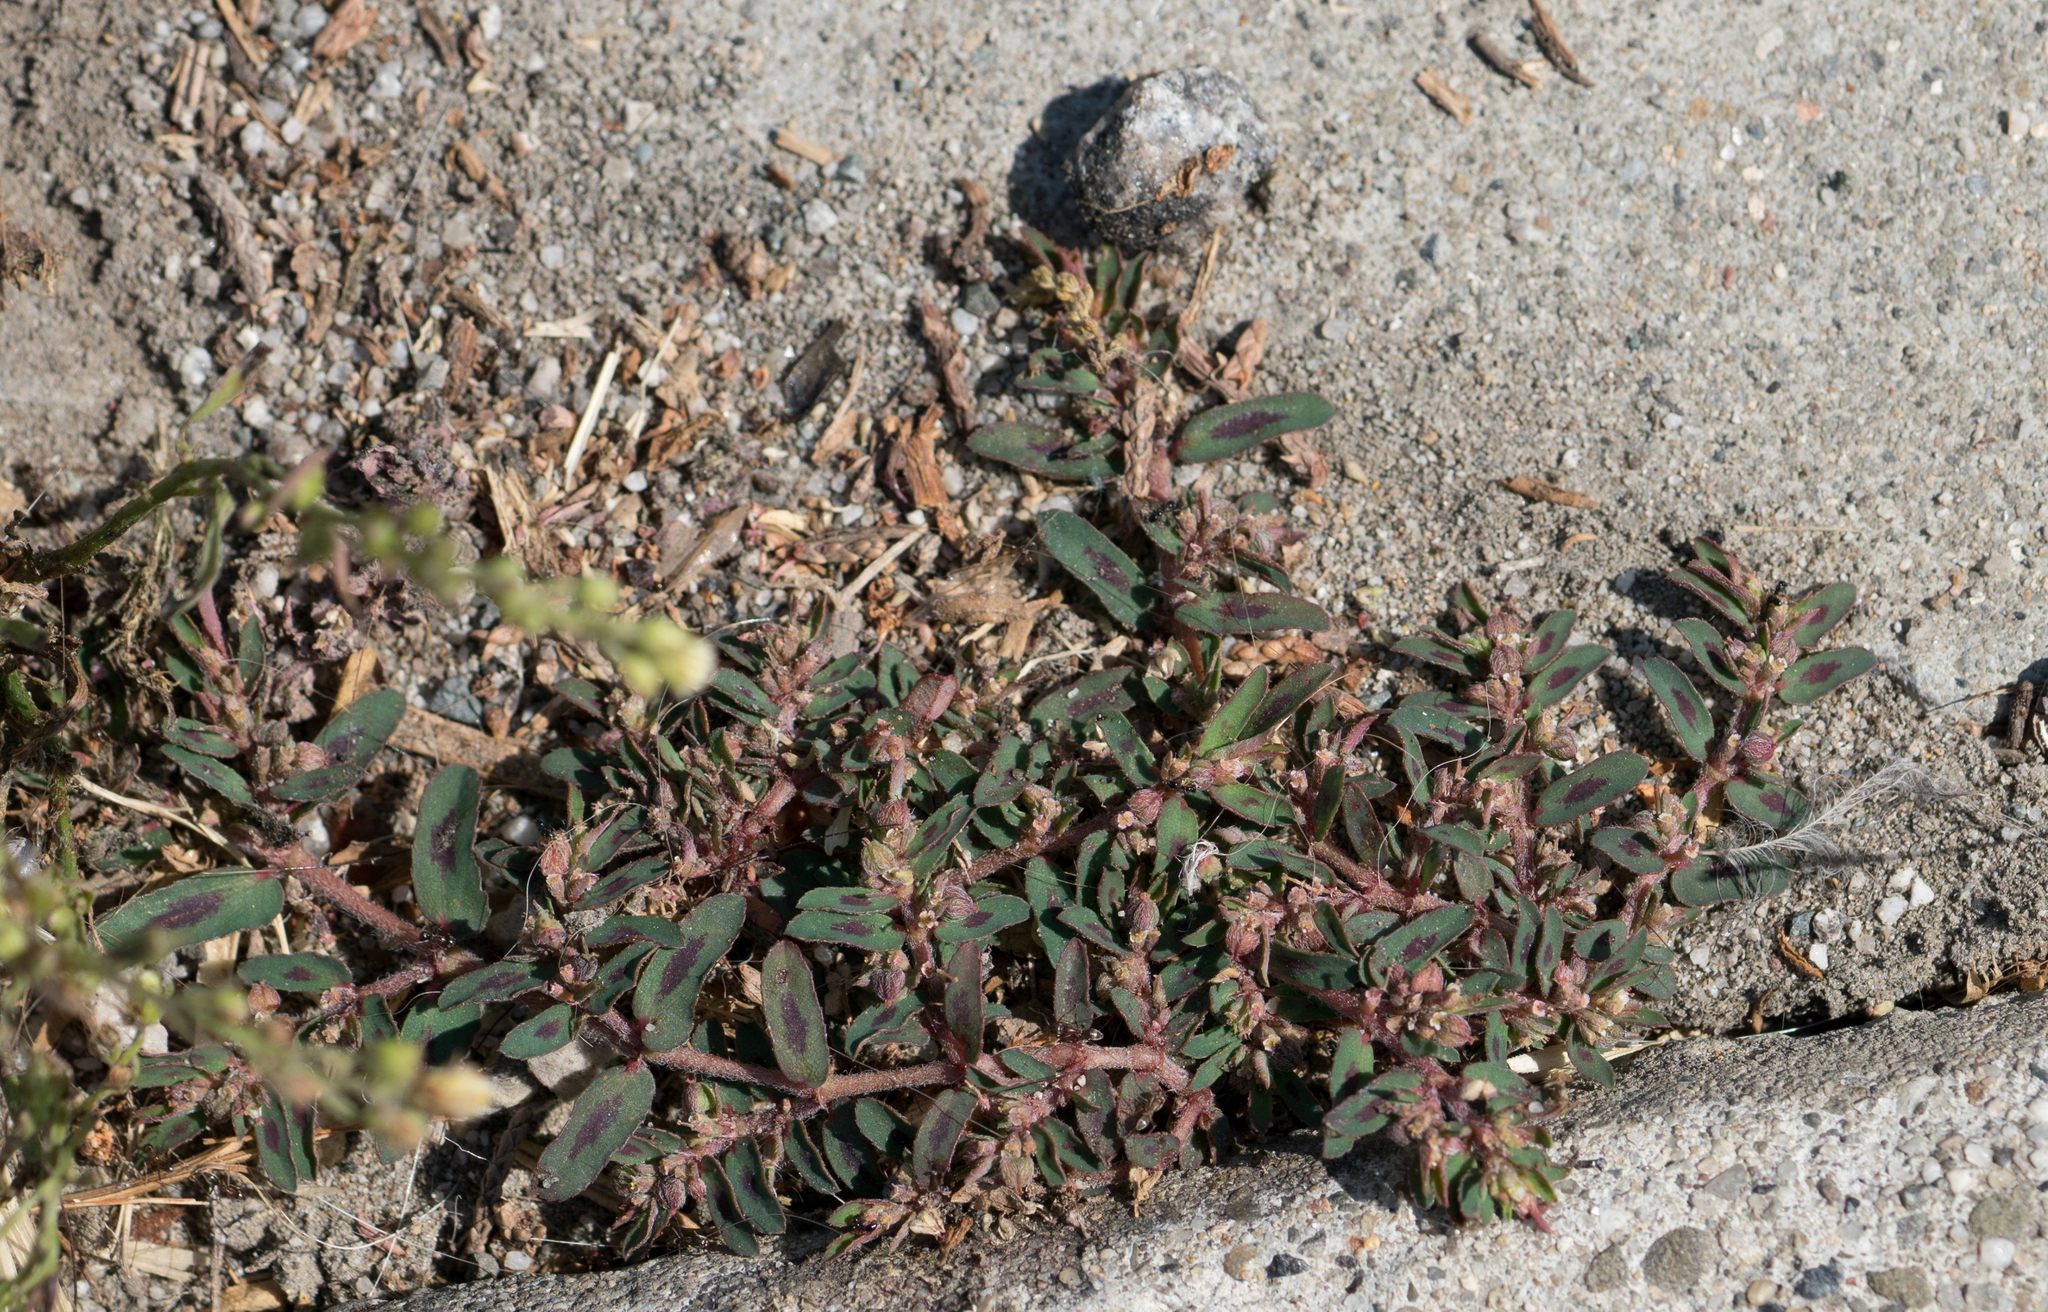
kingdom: Plantae
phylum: Tracheophyta
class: Magnoliopsida
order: Malpighiales
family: Euphorbiaceae
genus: Euphorbia
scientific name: Euphorbia maculata
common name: Spotted spurge
